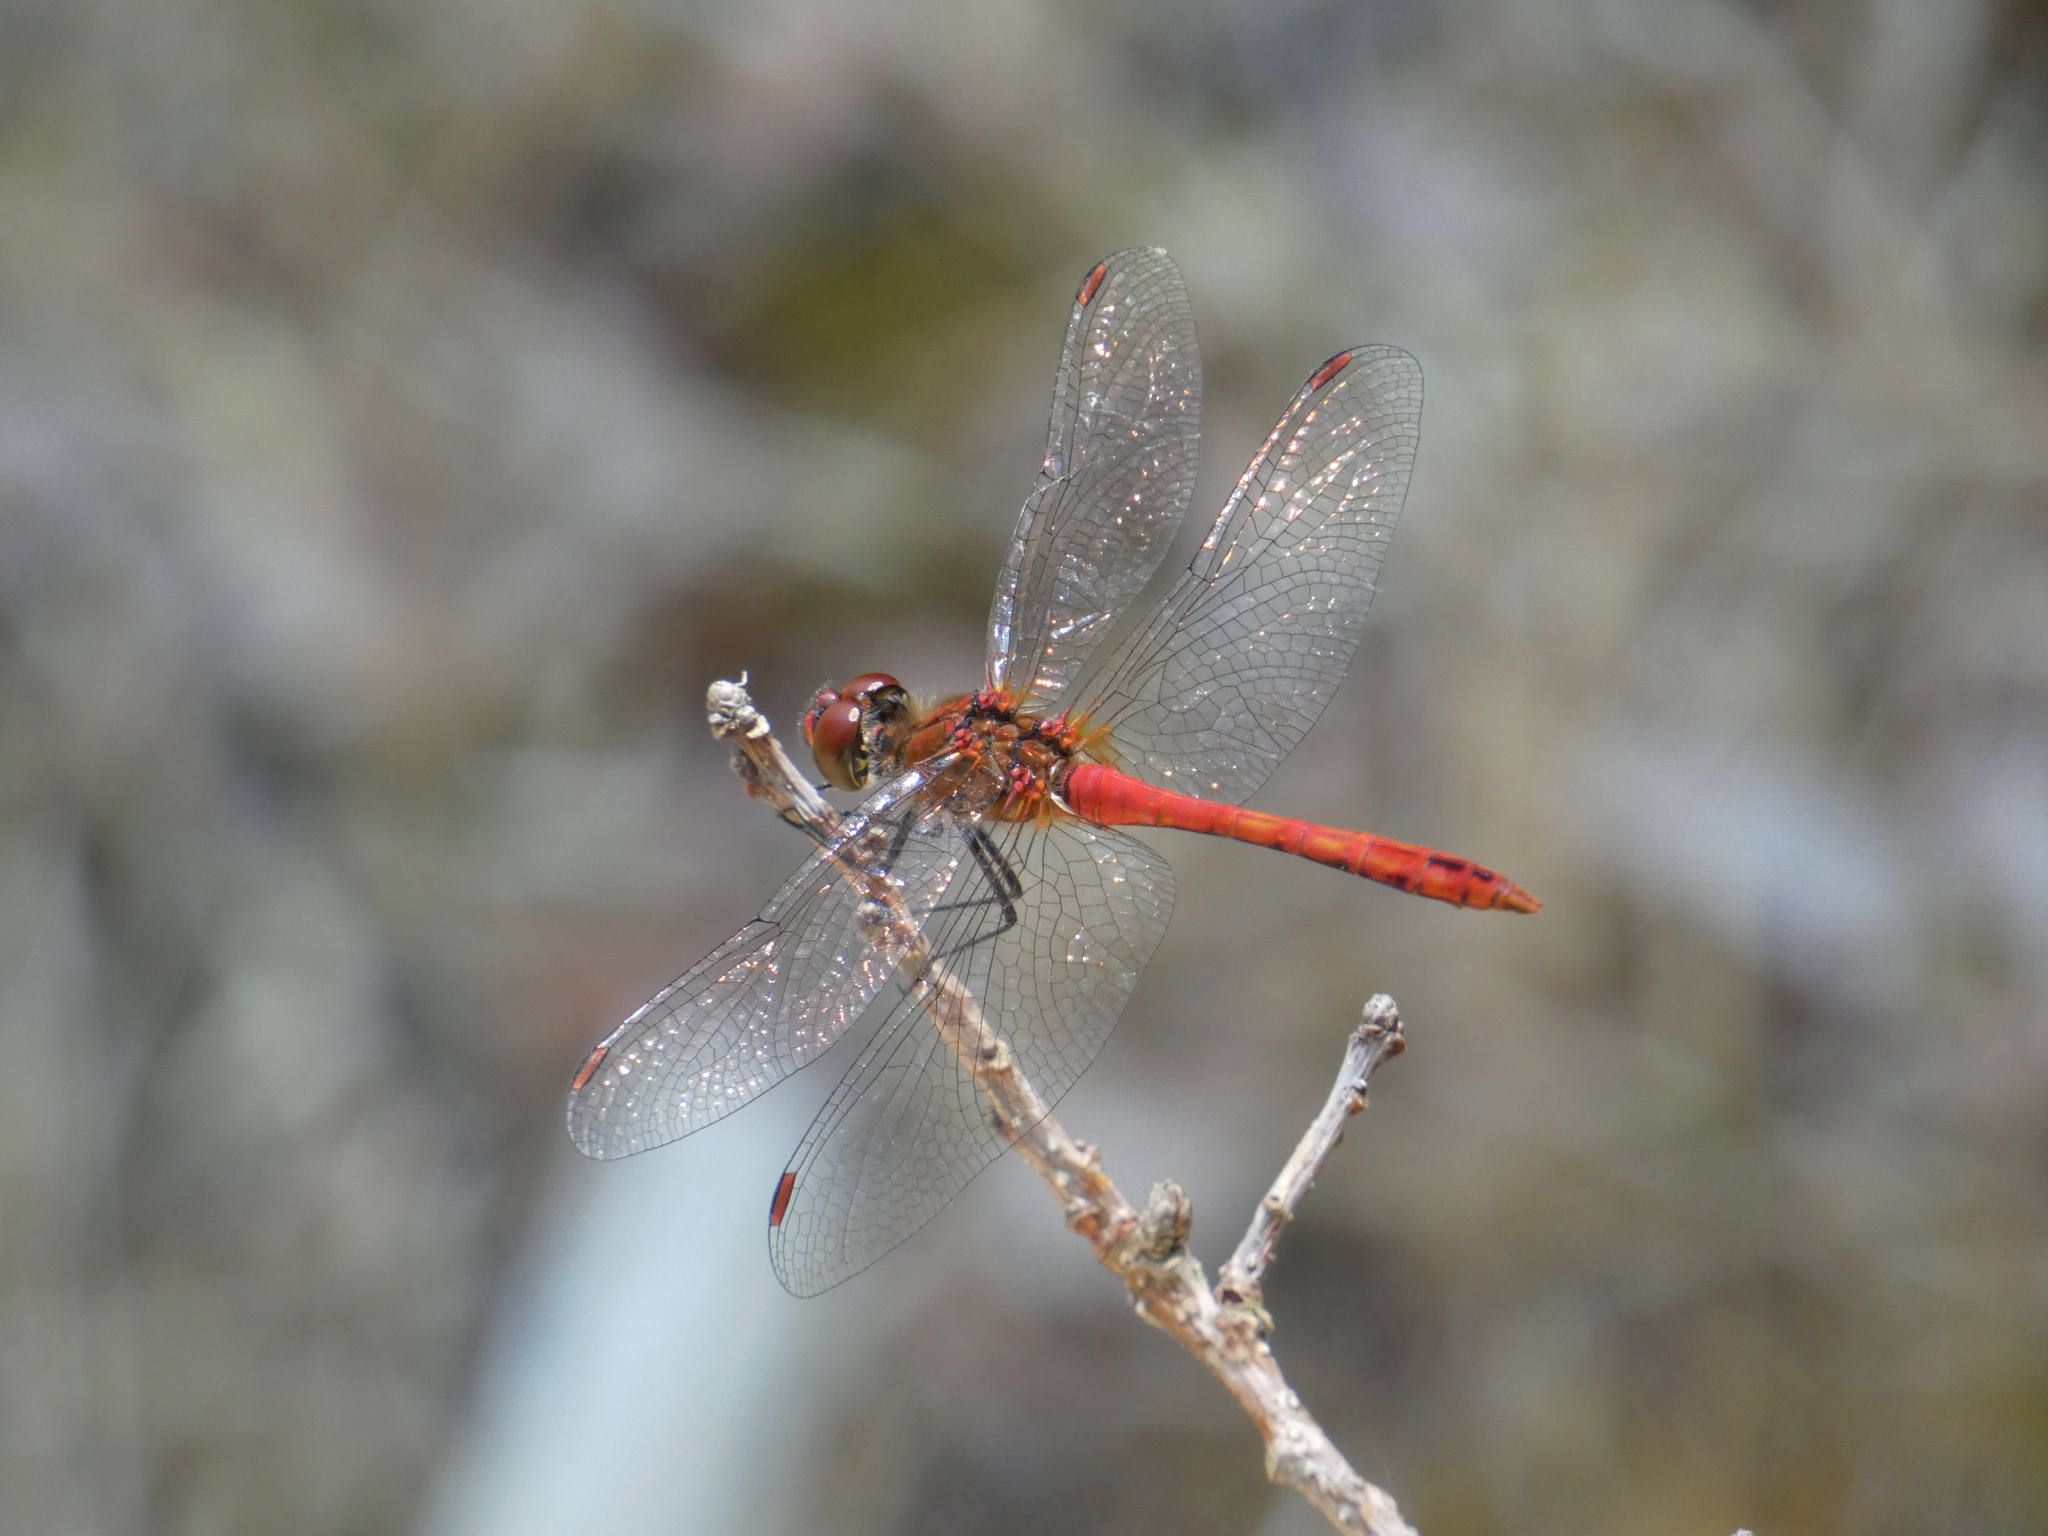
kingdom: Animalia
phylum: Arthropoda
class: Insecta
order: Odonata
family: Libellulidae
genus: Sympetrum
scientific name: Sympetrum sanguineum
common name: Ruddy darter
